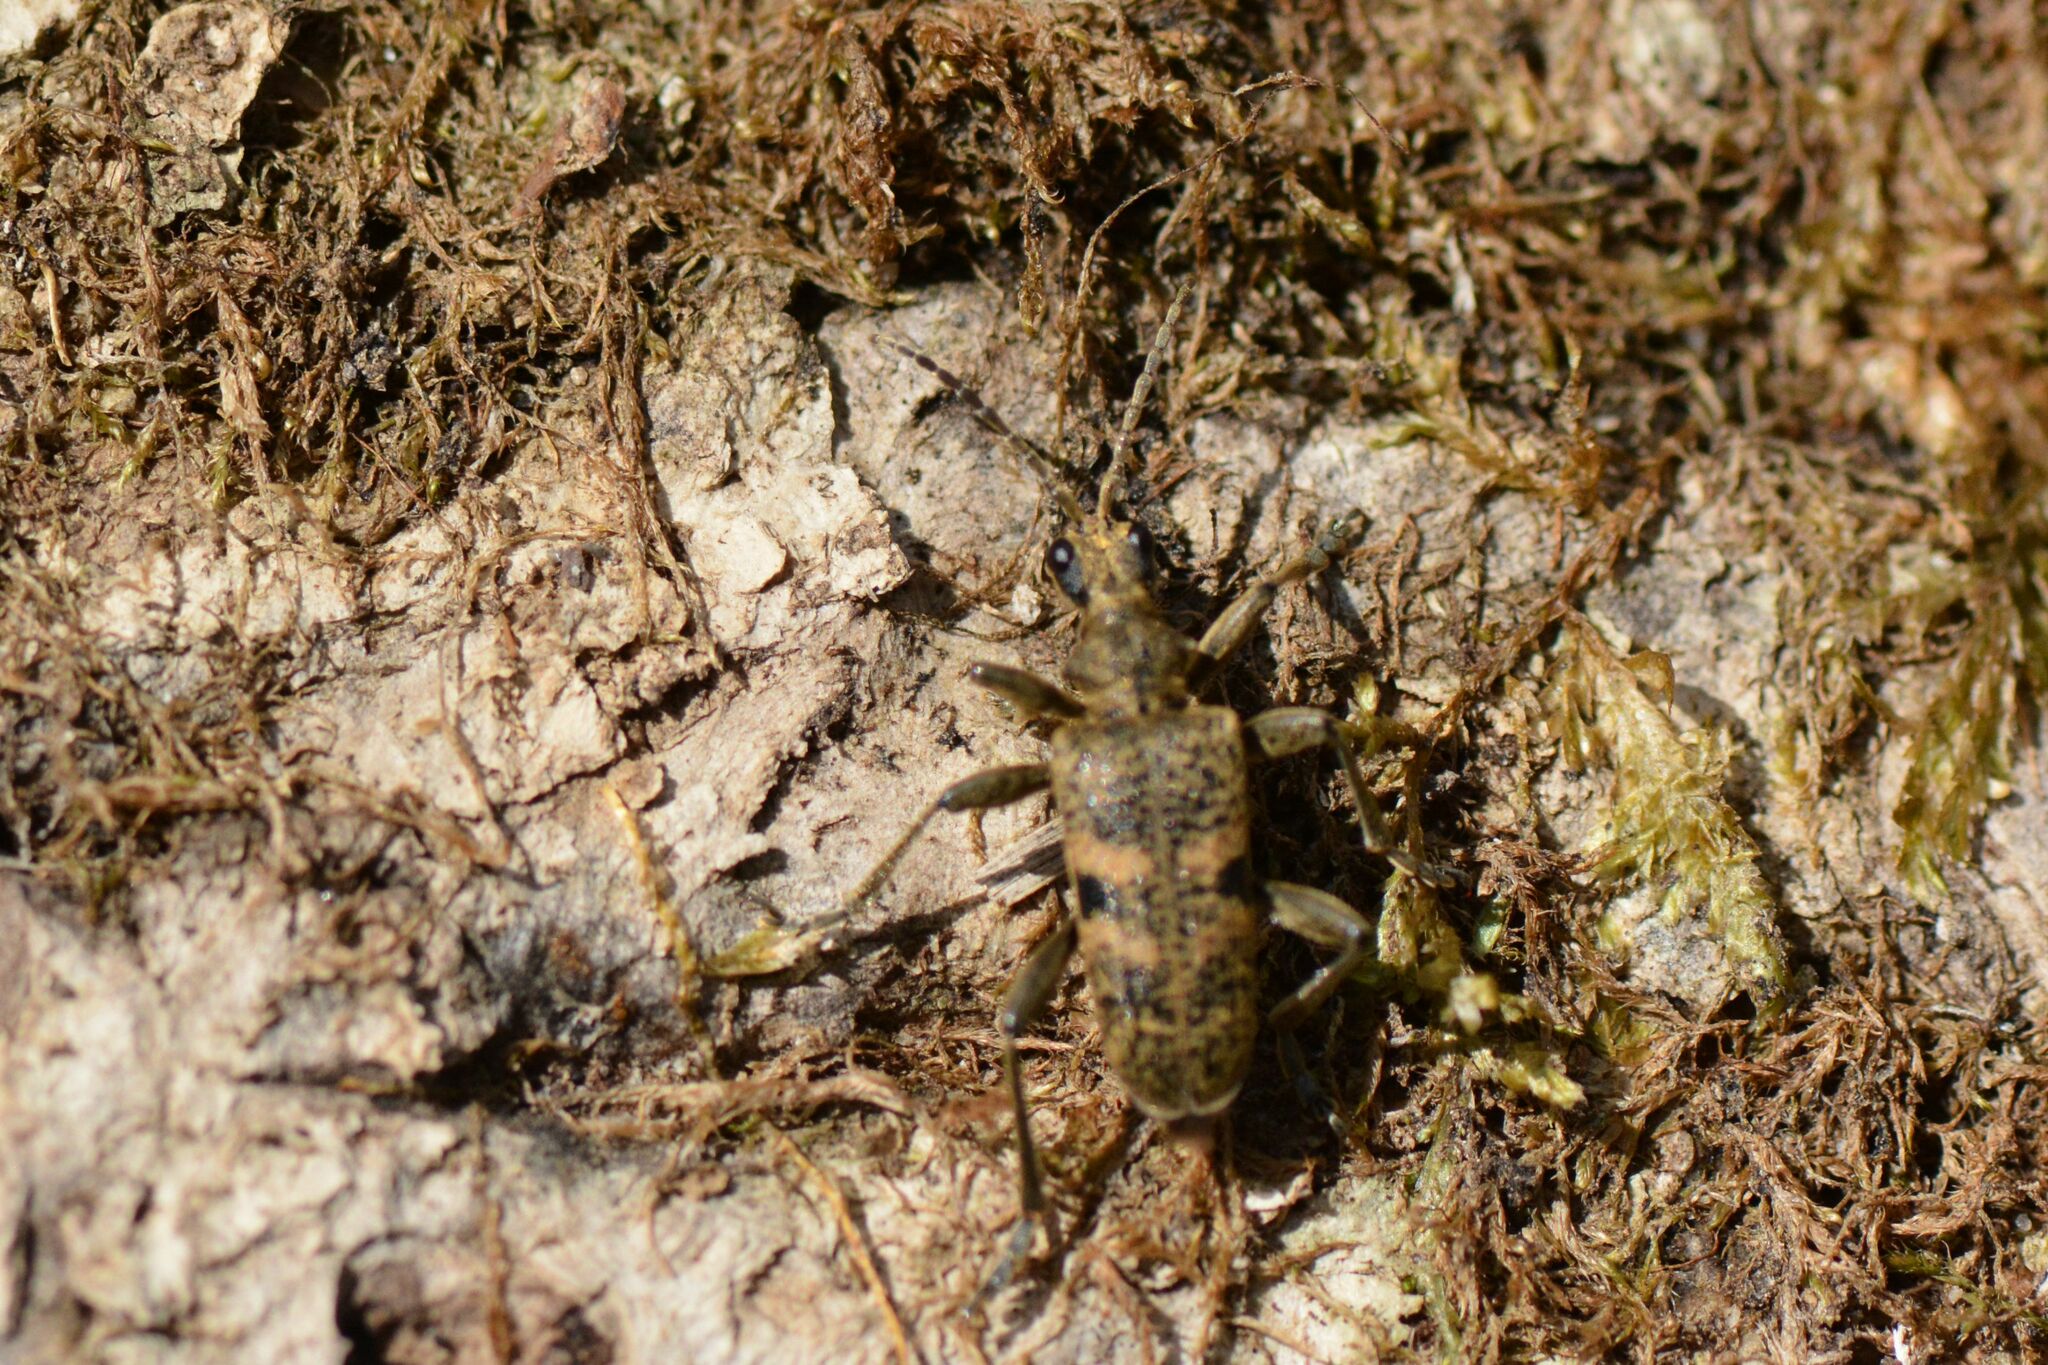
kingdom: Animalia
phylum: Arthropoda
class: Insecta
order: Coleoptera
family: Cerambycidae
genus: Rhagium
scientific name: Rhagium mordax
